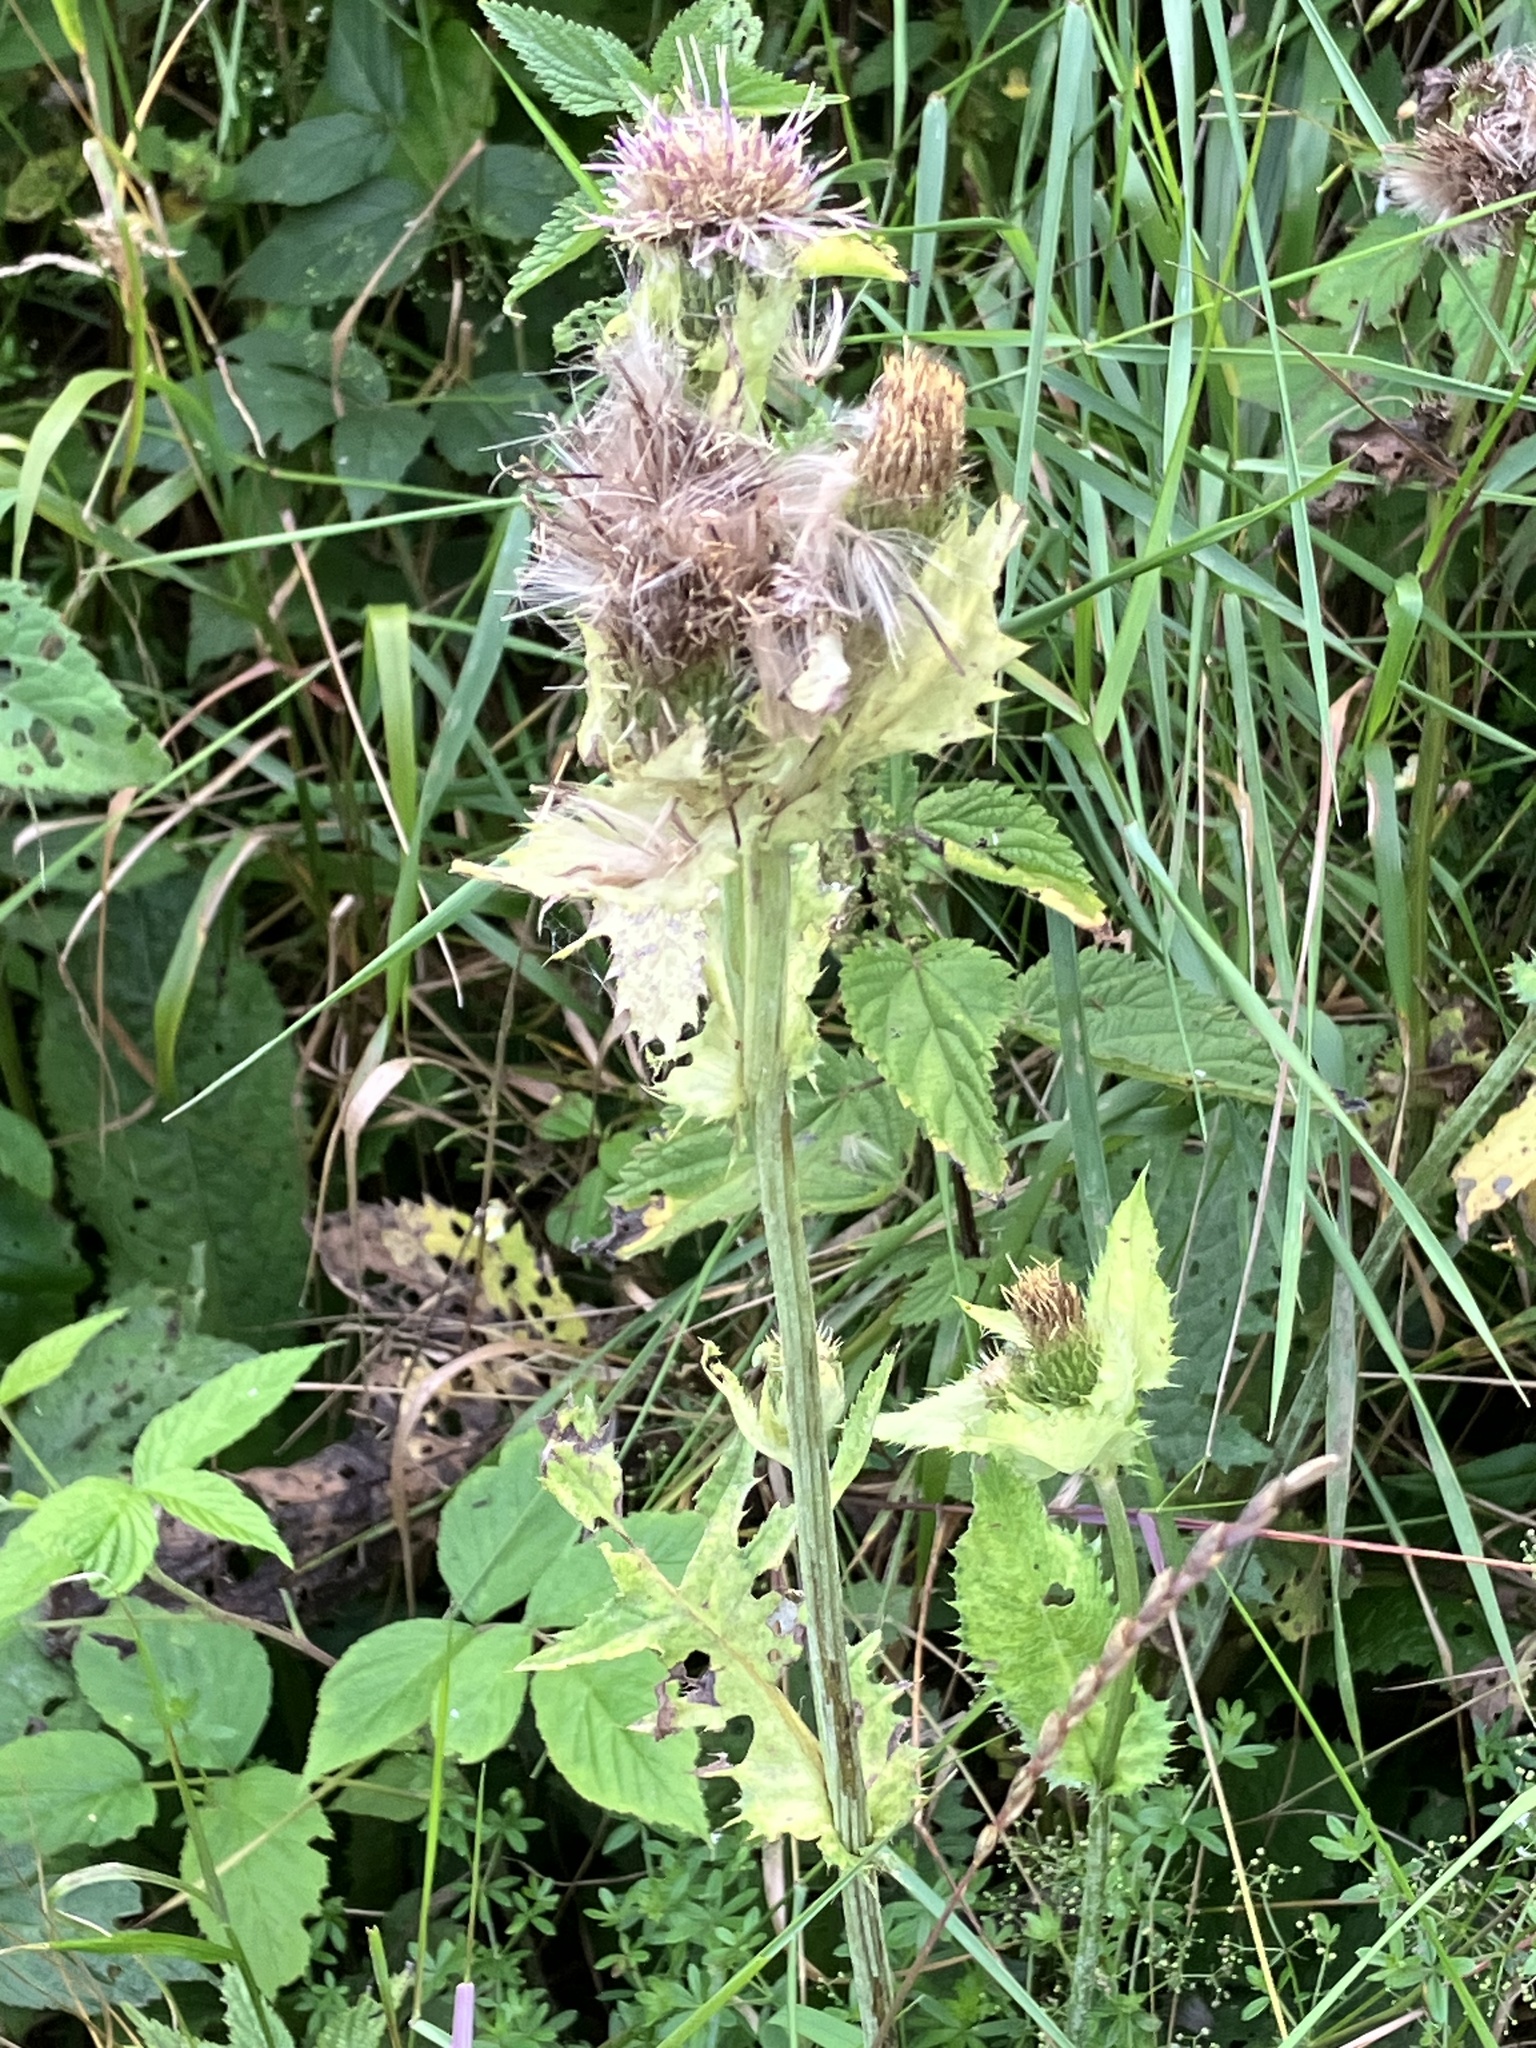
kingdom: Plantae
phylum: Tracheophyta
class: Magnoliopsida
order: Asterales
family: Asteraceae
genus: Cirsium
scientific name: Cirsium oleraceum
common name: Cabbage thistle
